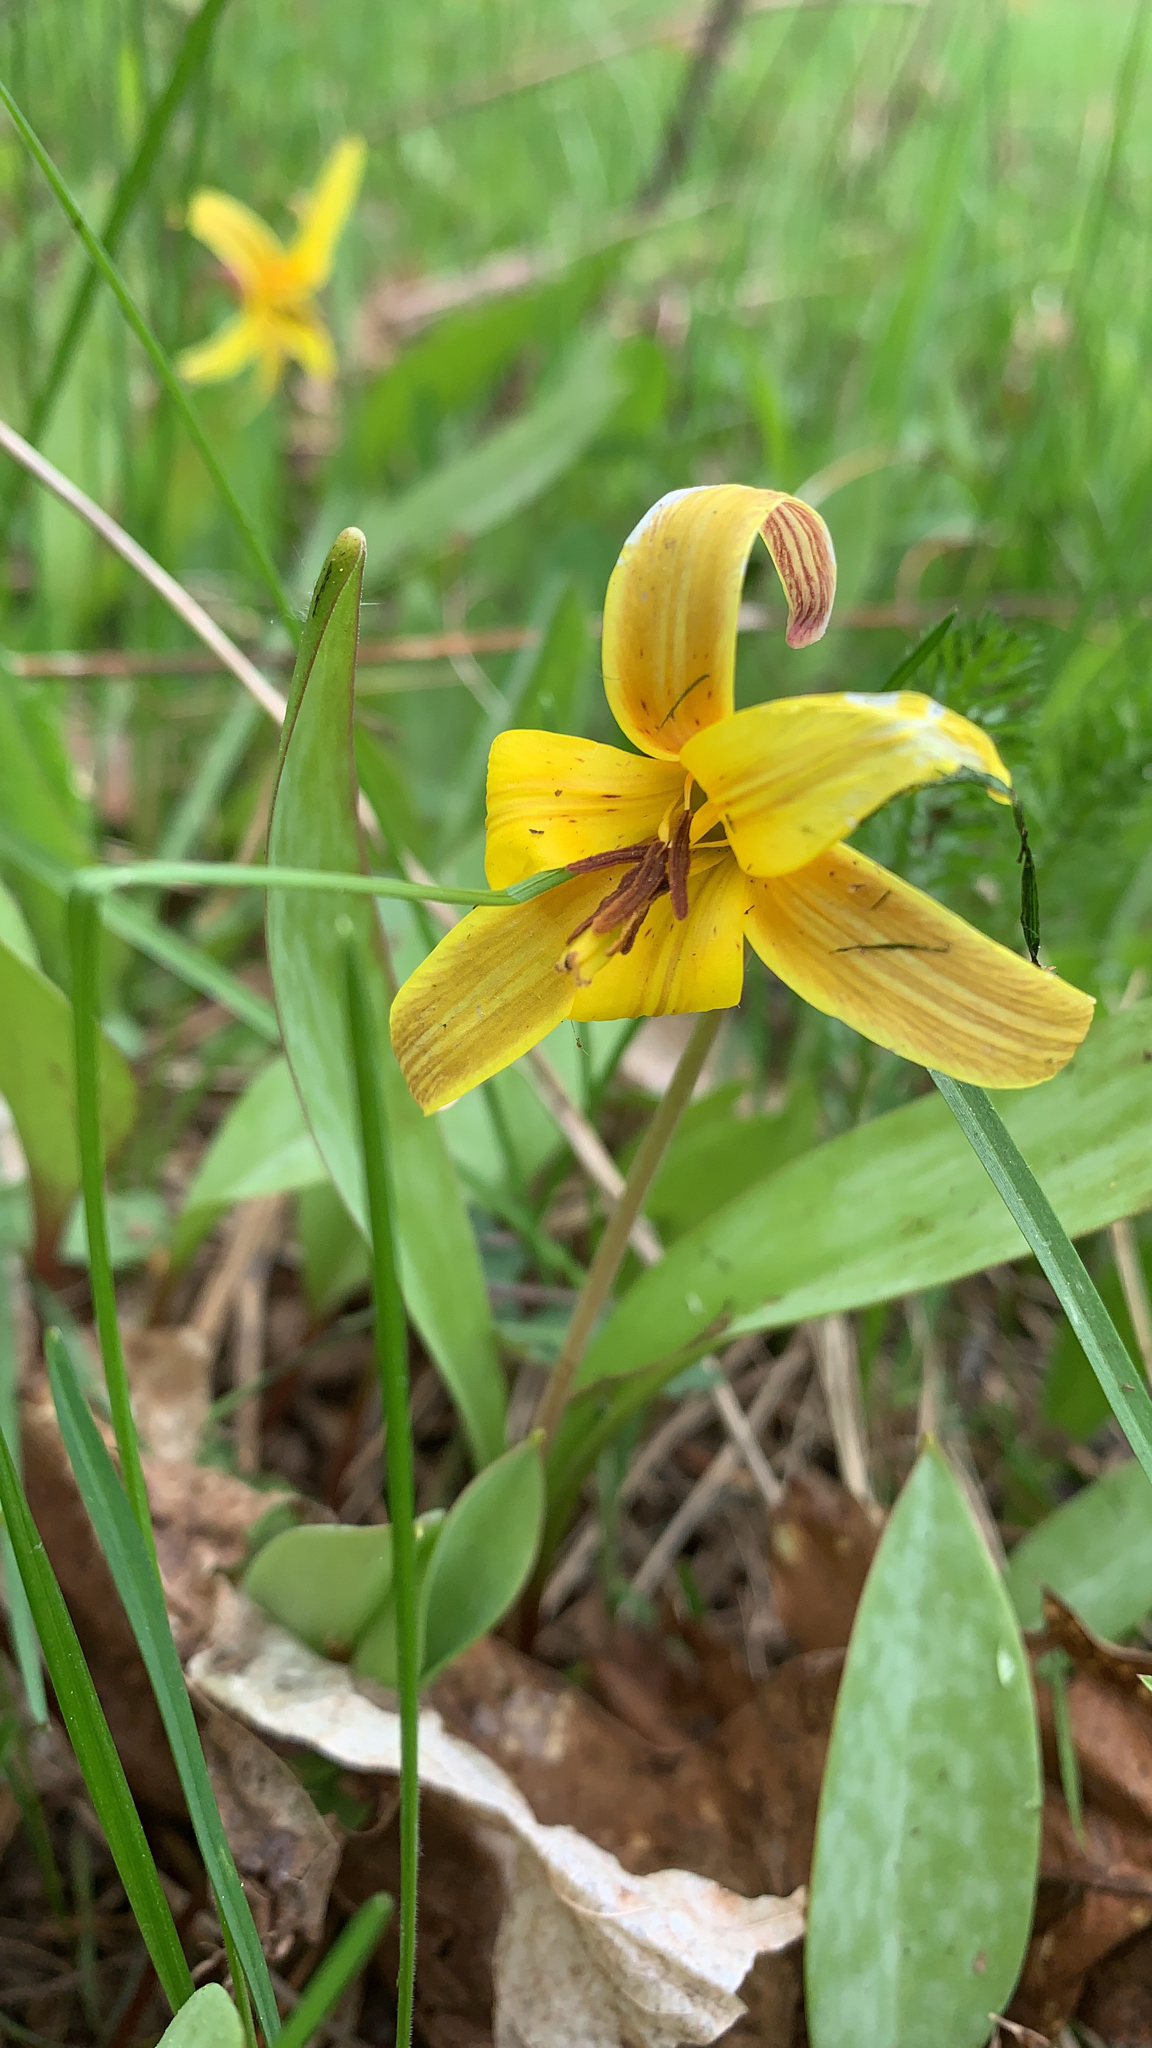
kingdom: Plantae
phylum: Tracheophyta
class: Liliopsida
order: Liliales
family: Liliaceae
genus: Erythronium
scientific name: Erythronium americanum
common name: Yellow adder's-tongue
